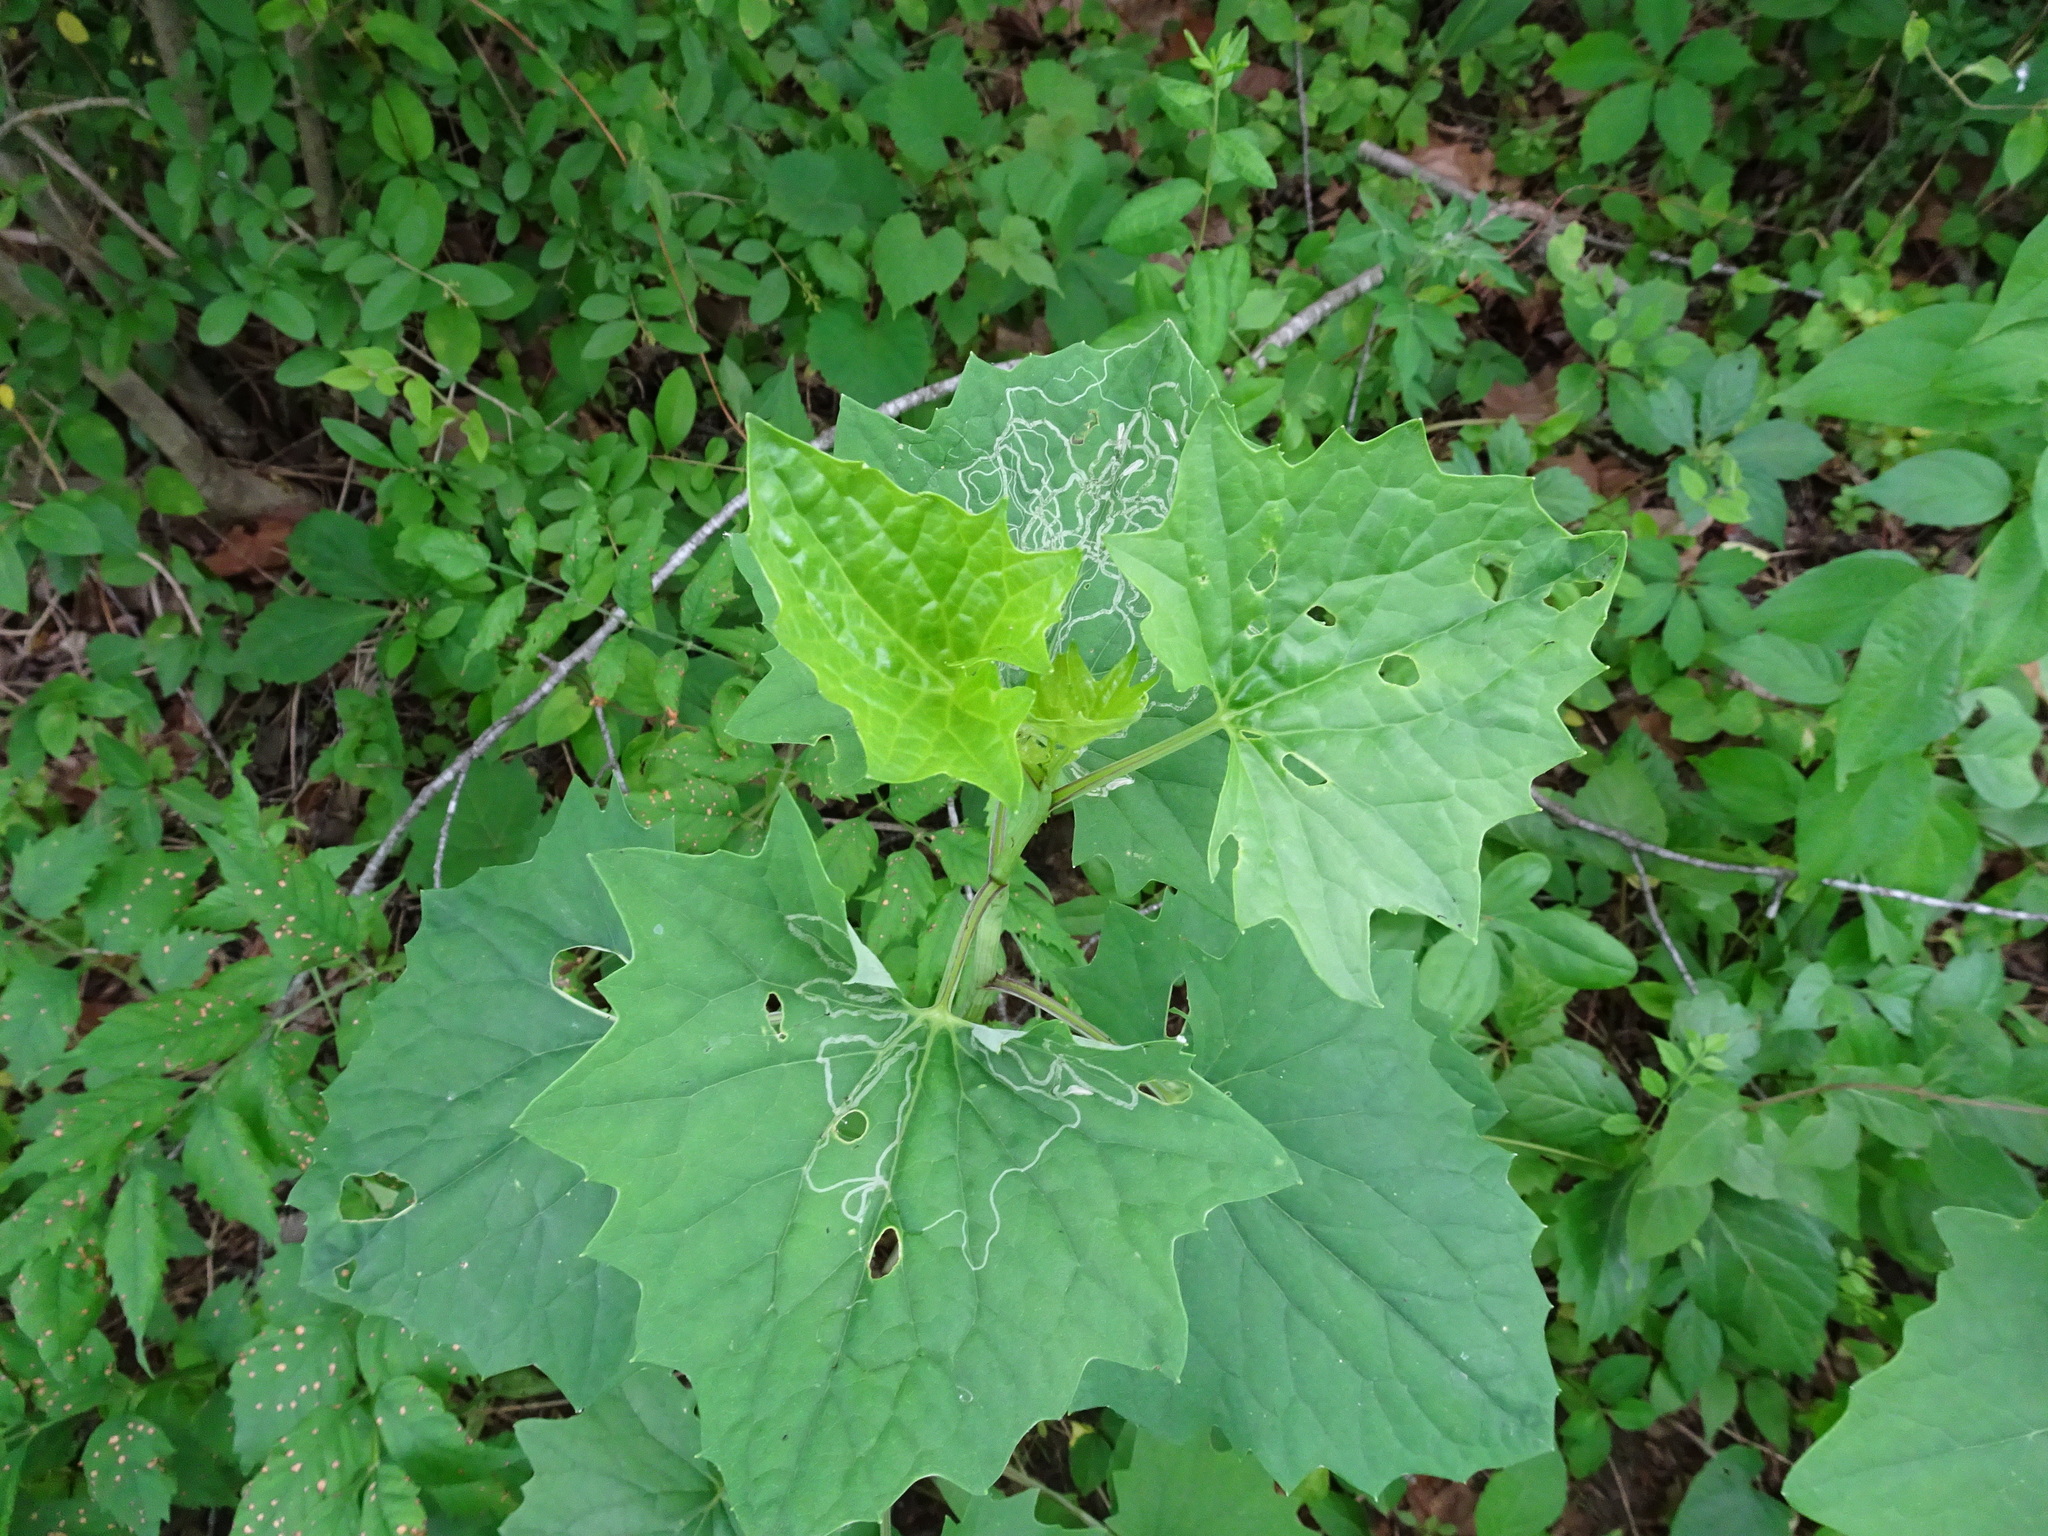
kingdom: Animalia
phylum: Arthropoda
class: Insecta
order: Lepidoptera
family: Gracillariidae
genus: Phyllocnistis
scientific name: Phyllocnistis insignis
